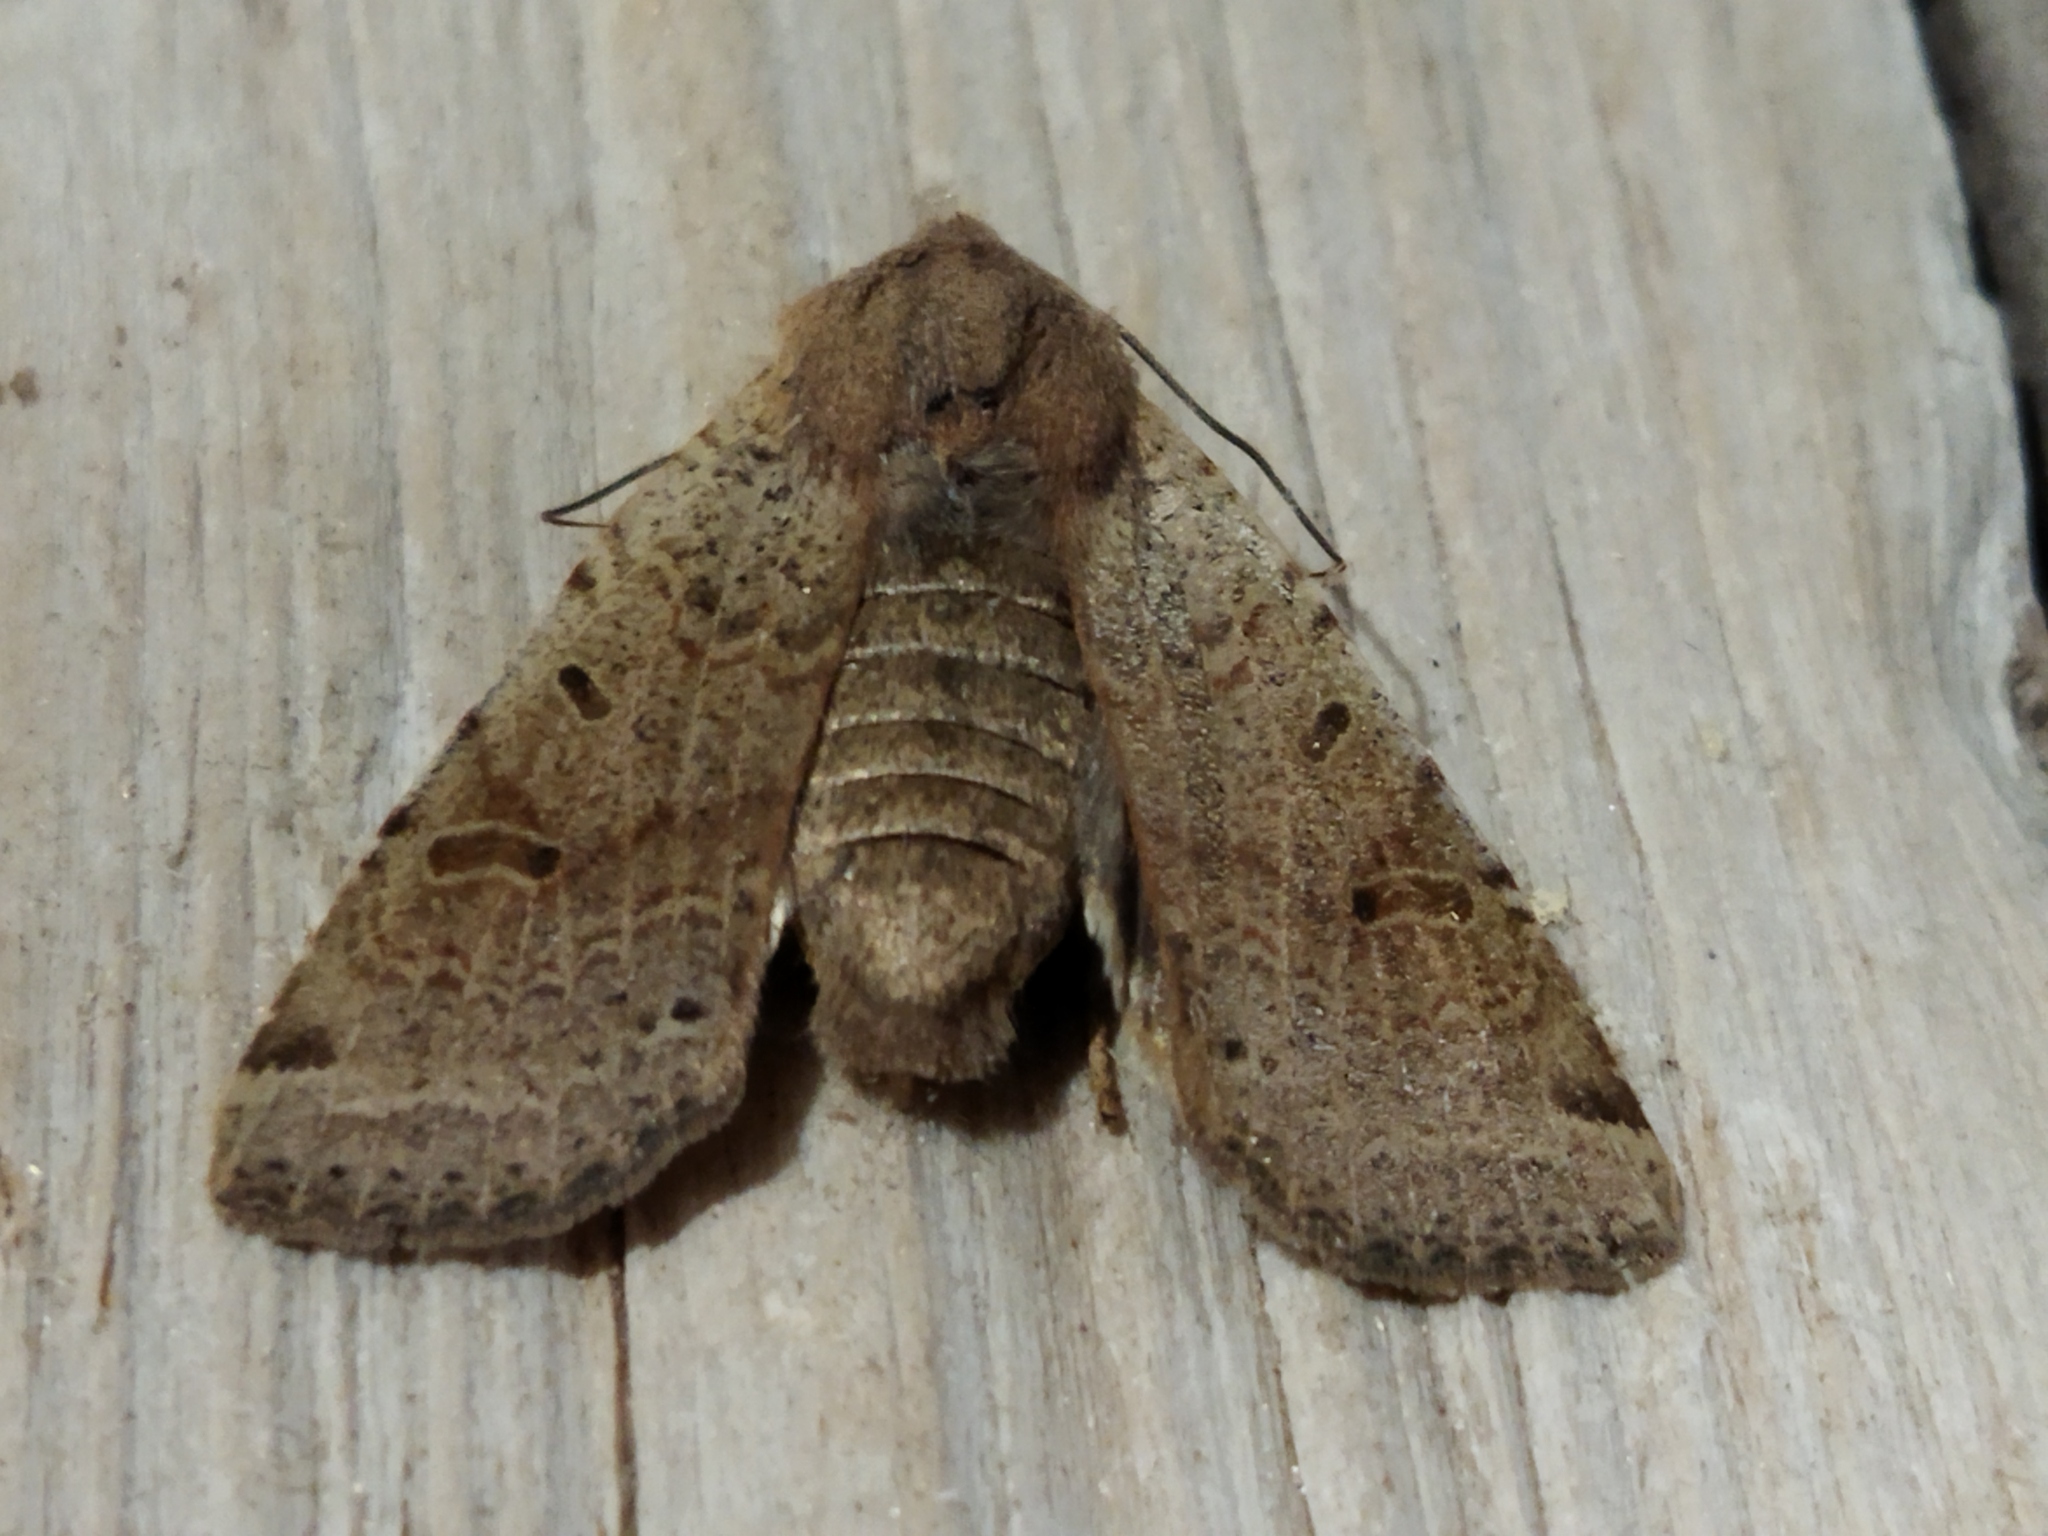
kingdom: Animalia
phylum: Arthropoda
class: Insecta
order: Lepidoptera
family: Noctuidae
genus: Agrochola
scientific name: Agrochola lychnidis
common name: Beaded chestnut
